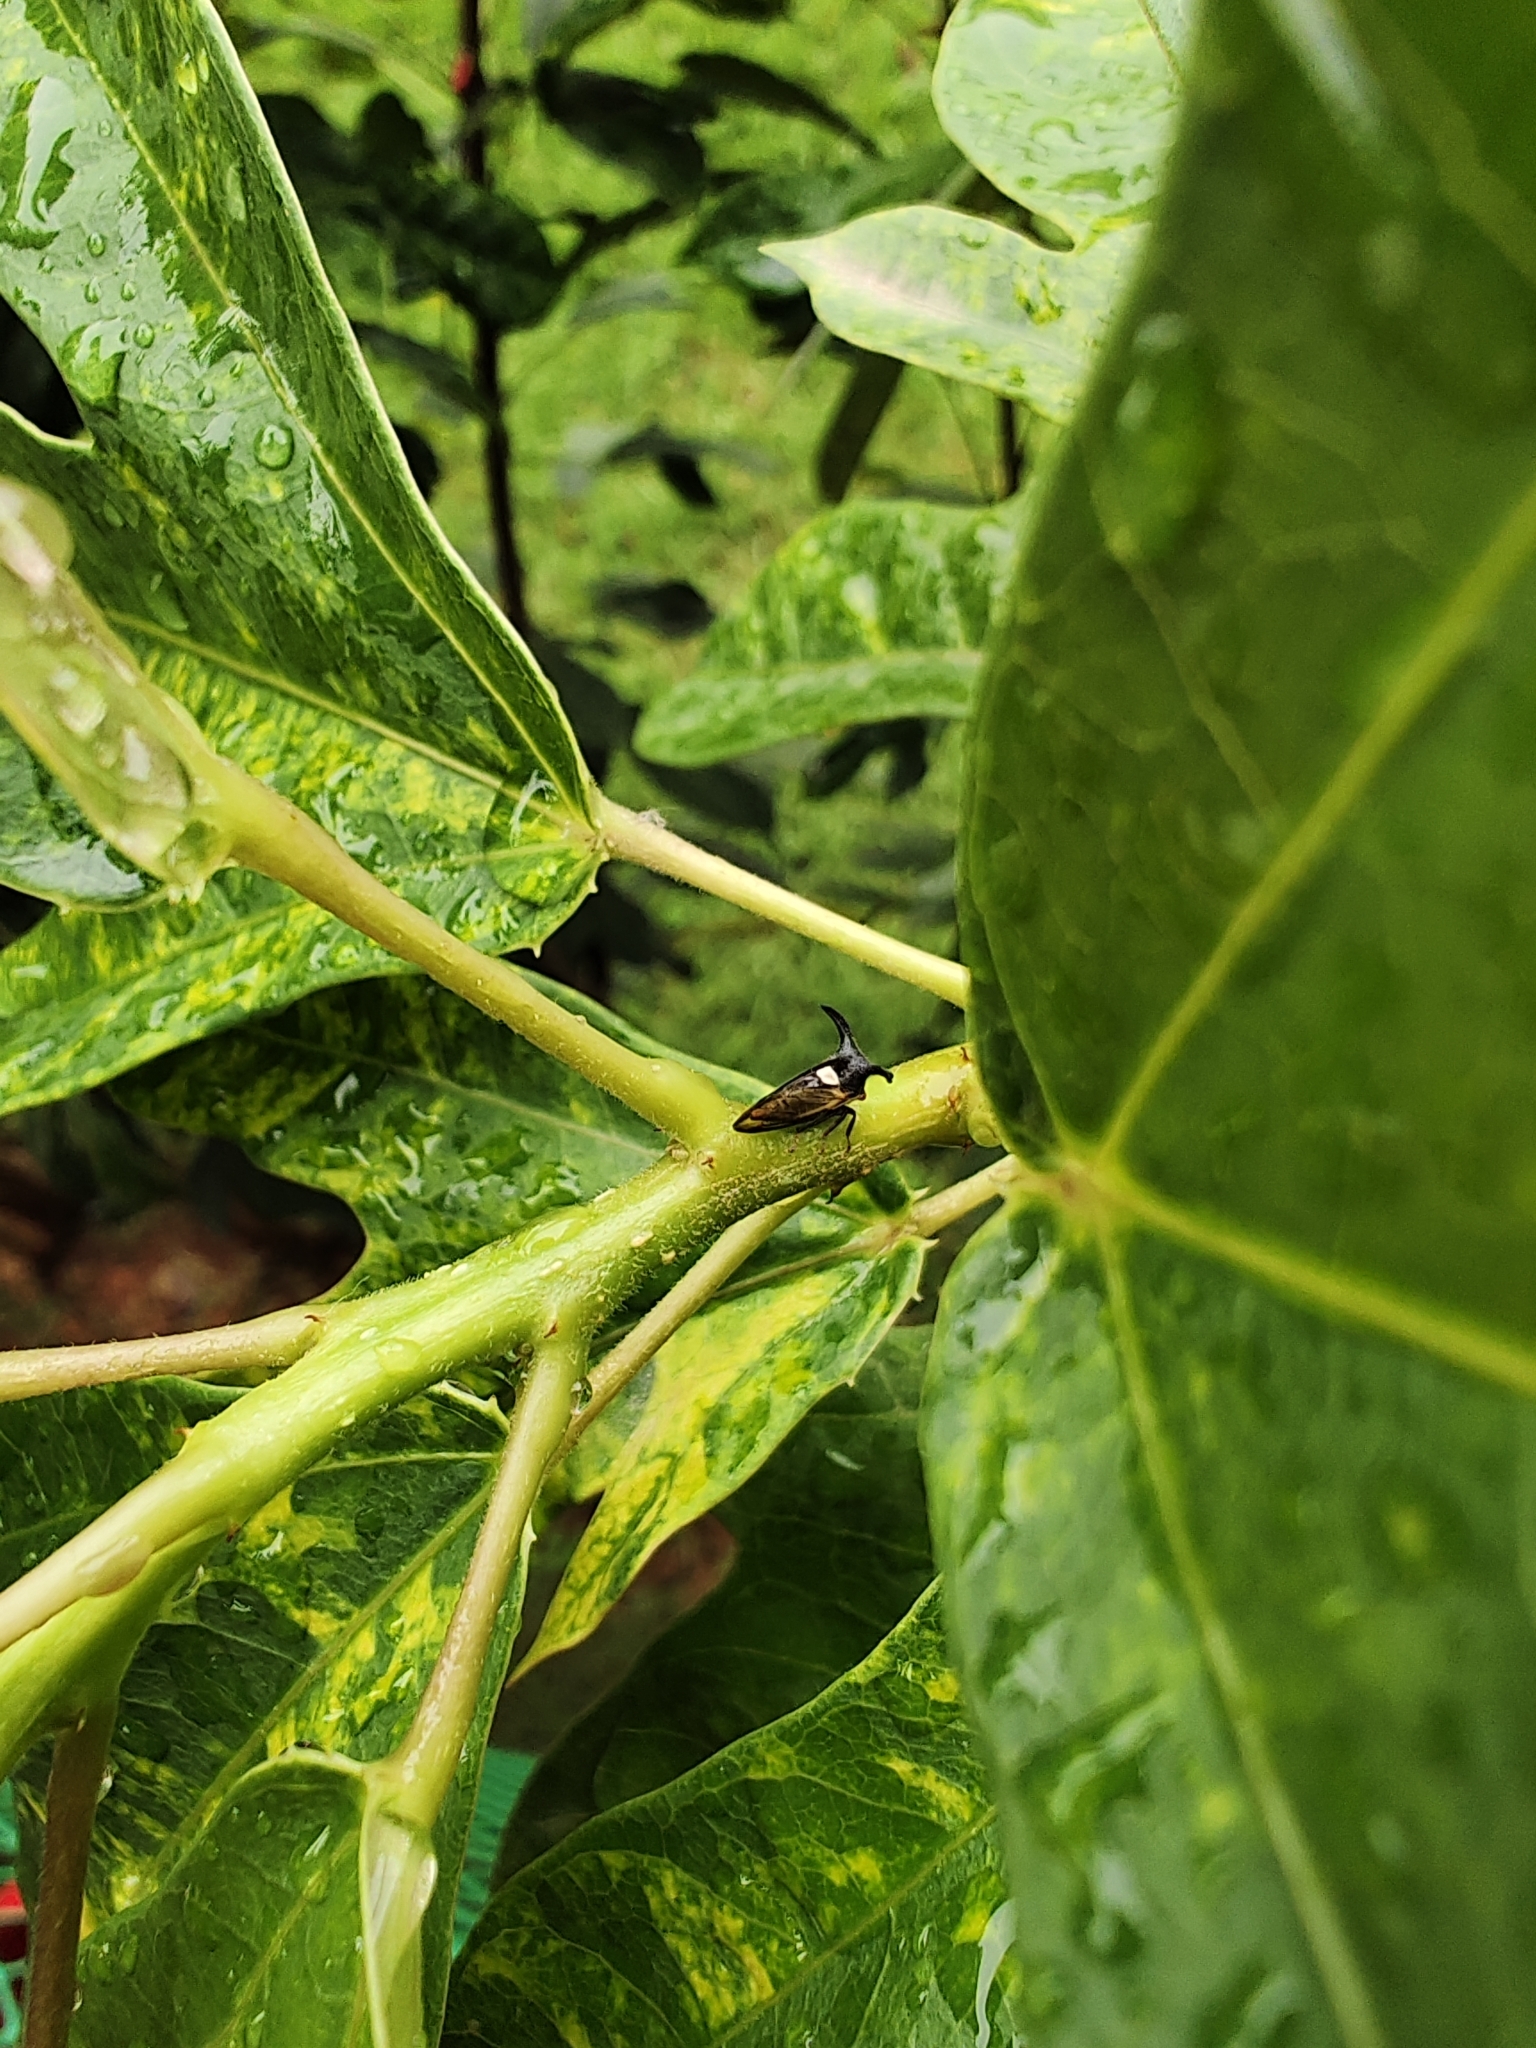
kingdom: Animalia
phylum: Arthropoda
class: Insecta
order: Hemiptera
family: Membracidae
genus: Leptocentrus
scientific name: Leptocentrus taurus
